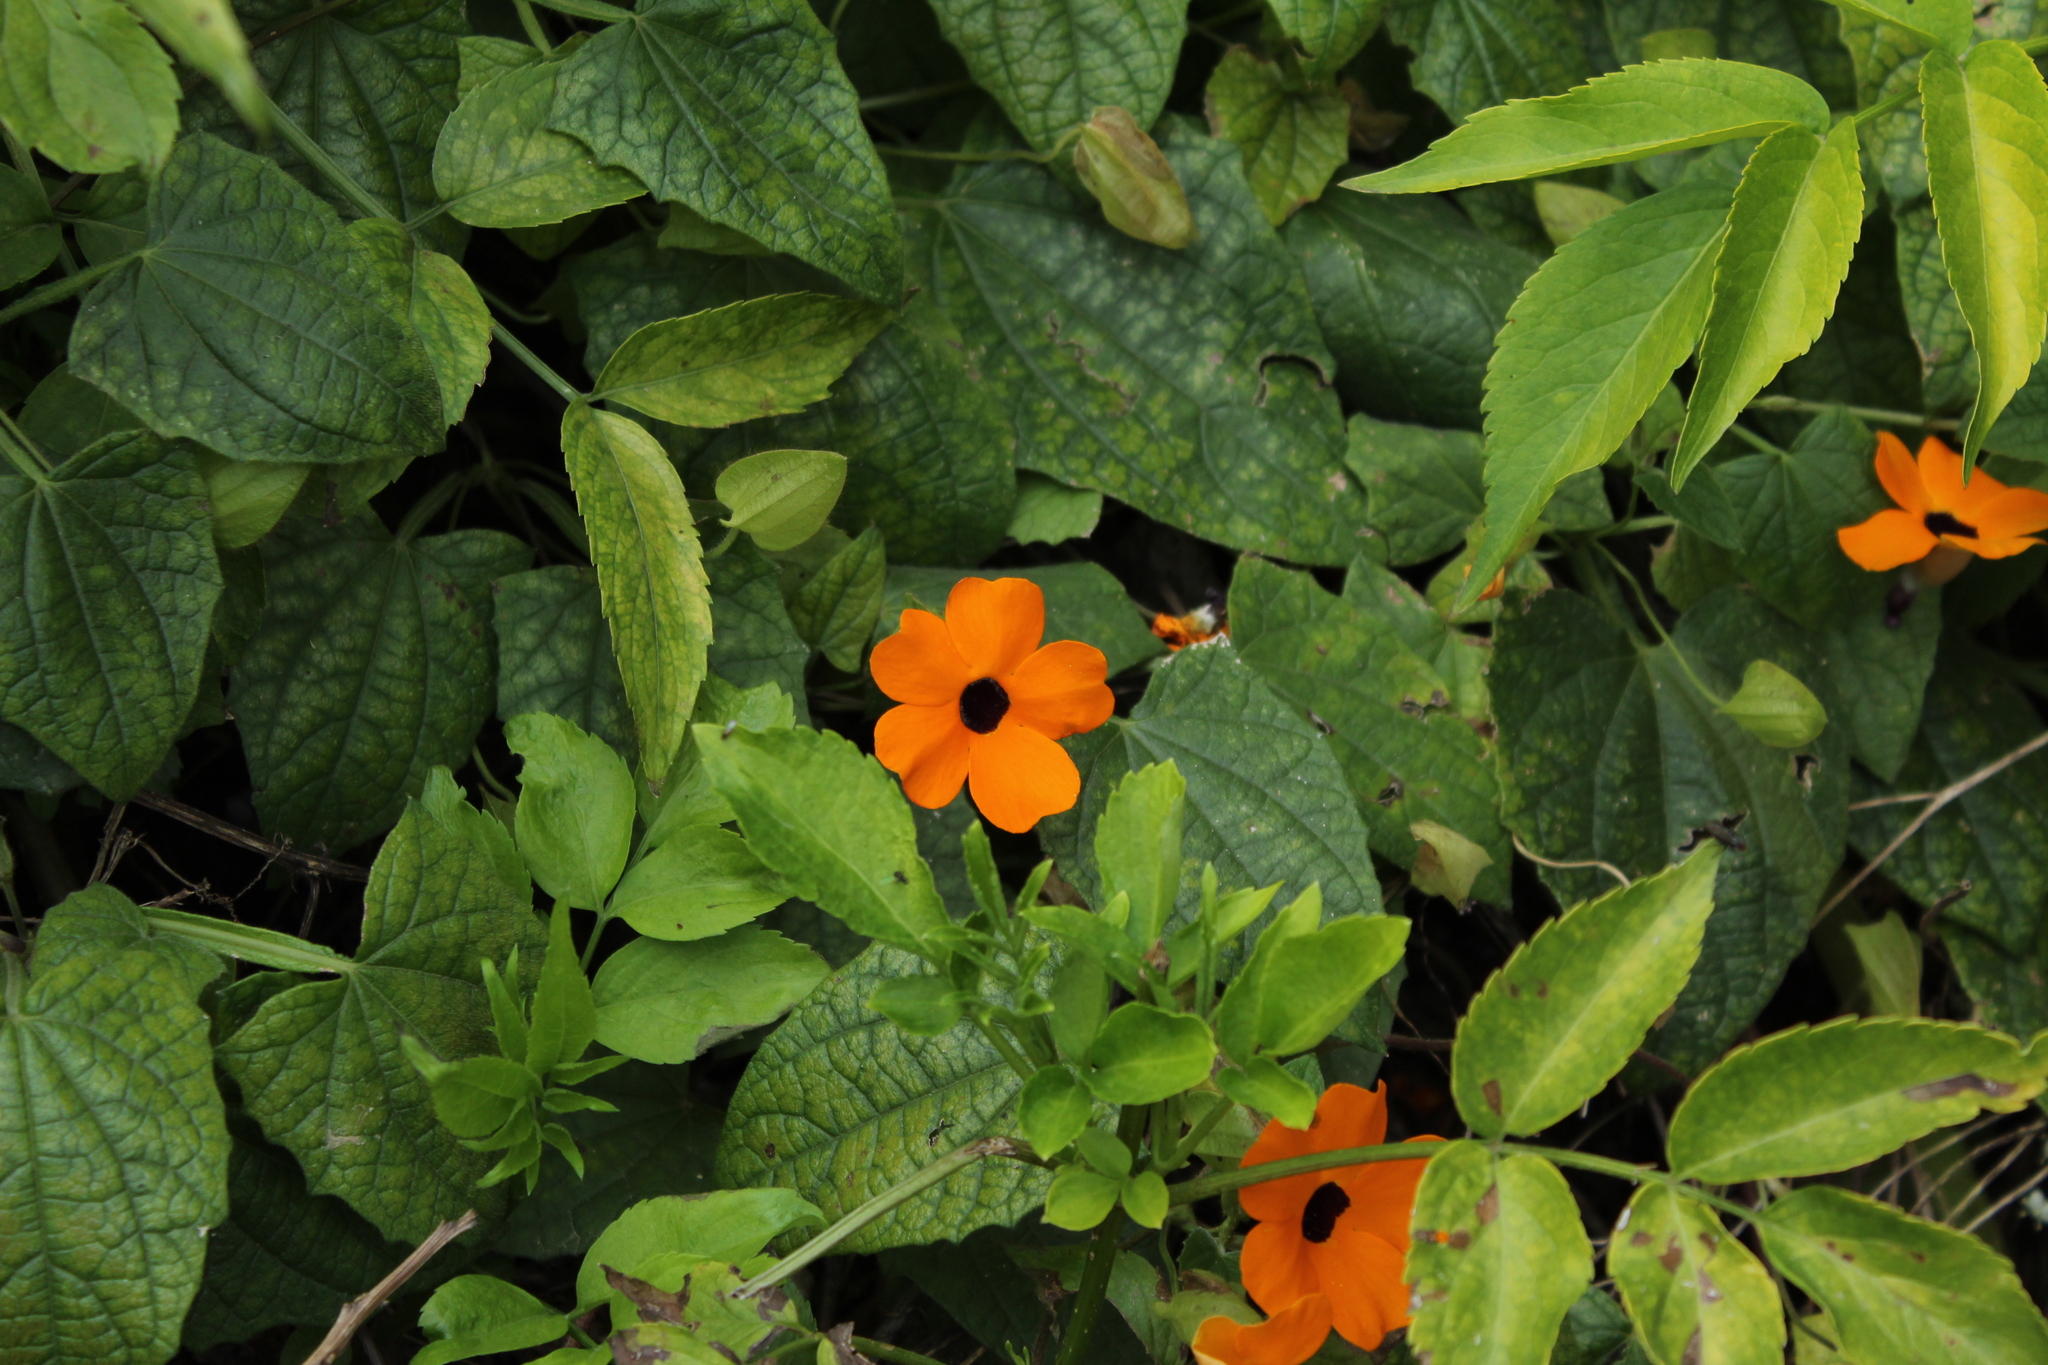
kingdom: Plantae
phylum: Tracheophyta
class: Magnoliopsida
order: Lamiales
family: Acanthaceae
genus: Thunbergia
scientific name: Thunbergia alata
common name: Blackeyed susan vine
